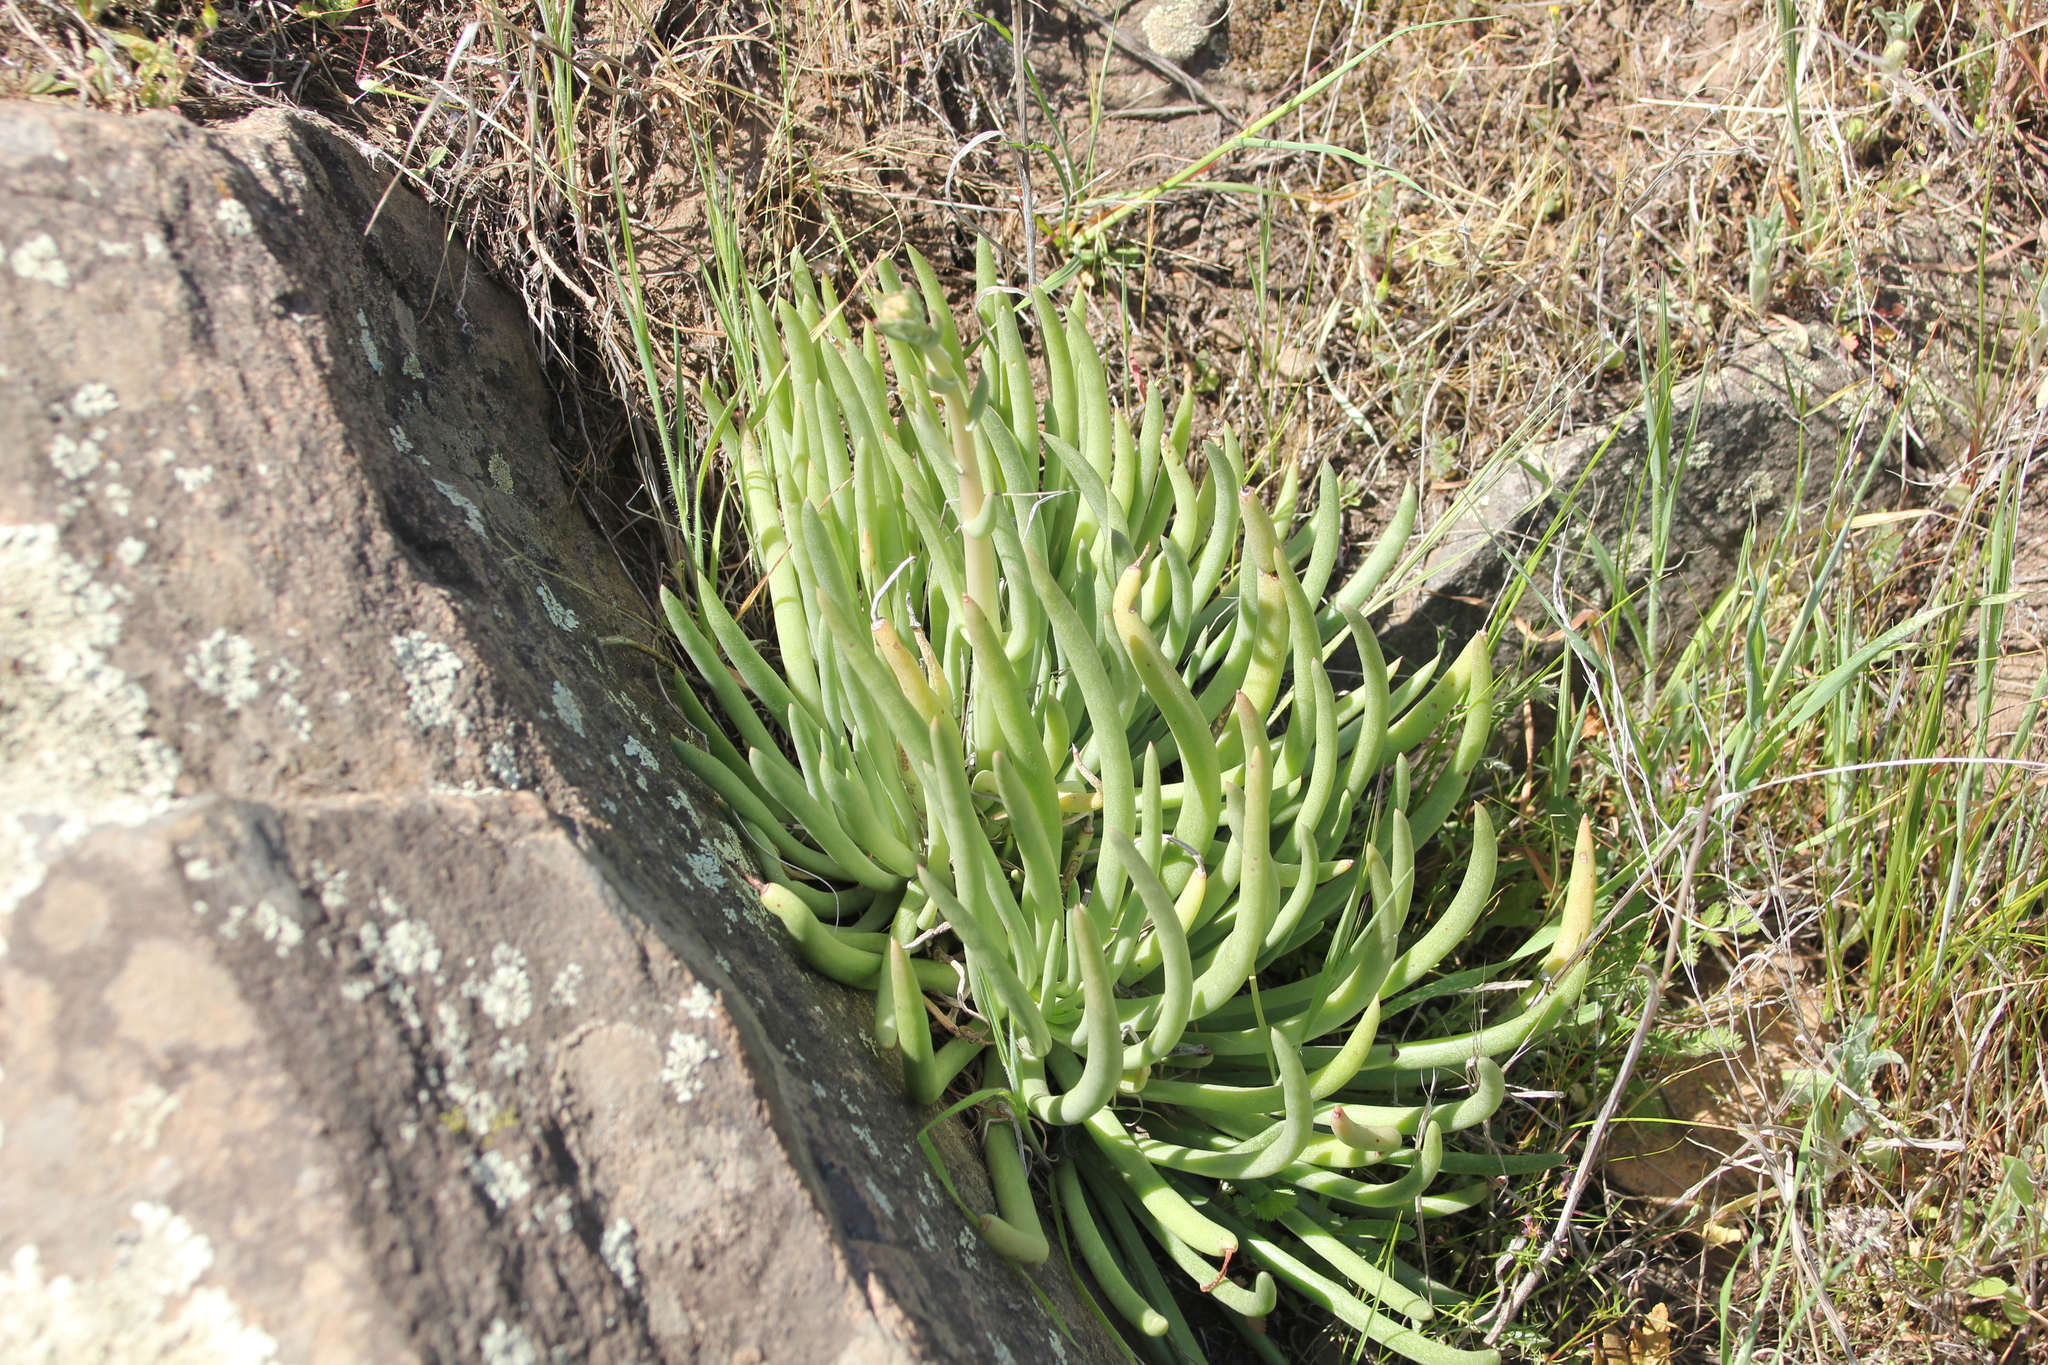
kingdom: Plantae
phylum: Tracheophyta
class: Magnoliopsida
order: Saxifragales
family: Crassulaceae
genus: Dudleya
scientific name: Dudleya edulis
